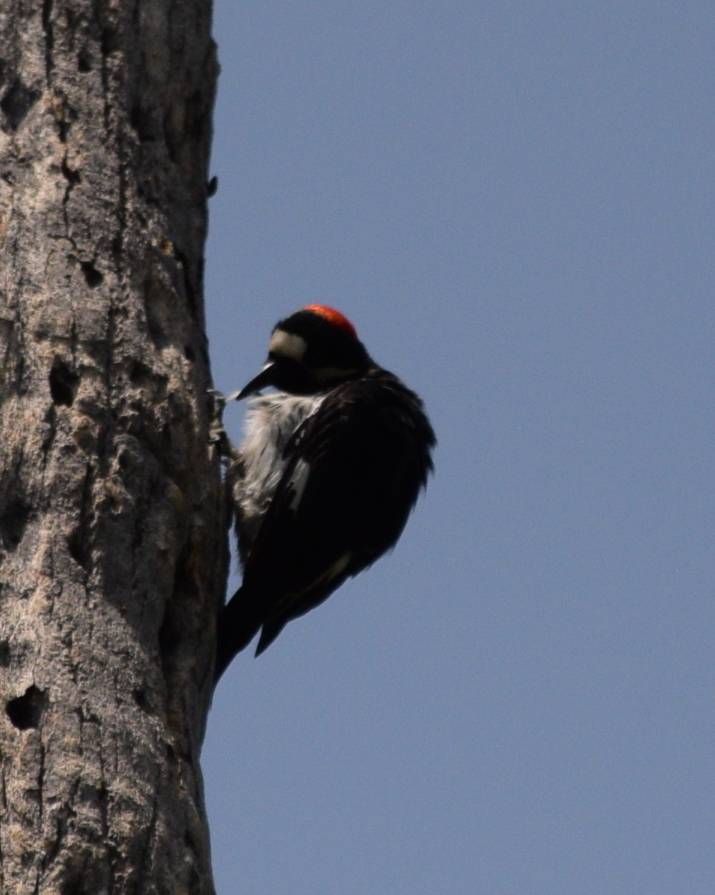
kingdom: Animalia
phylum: Chordata
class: Aves
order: Piciformes
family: Picidae
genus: Melanerpes
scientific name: Melanerpes formicivorus
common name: Acorn woodpecker
